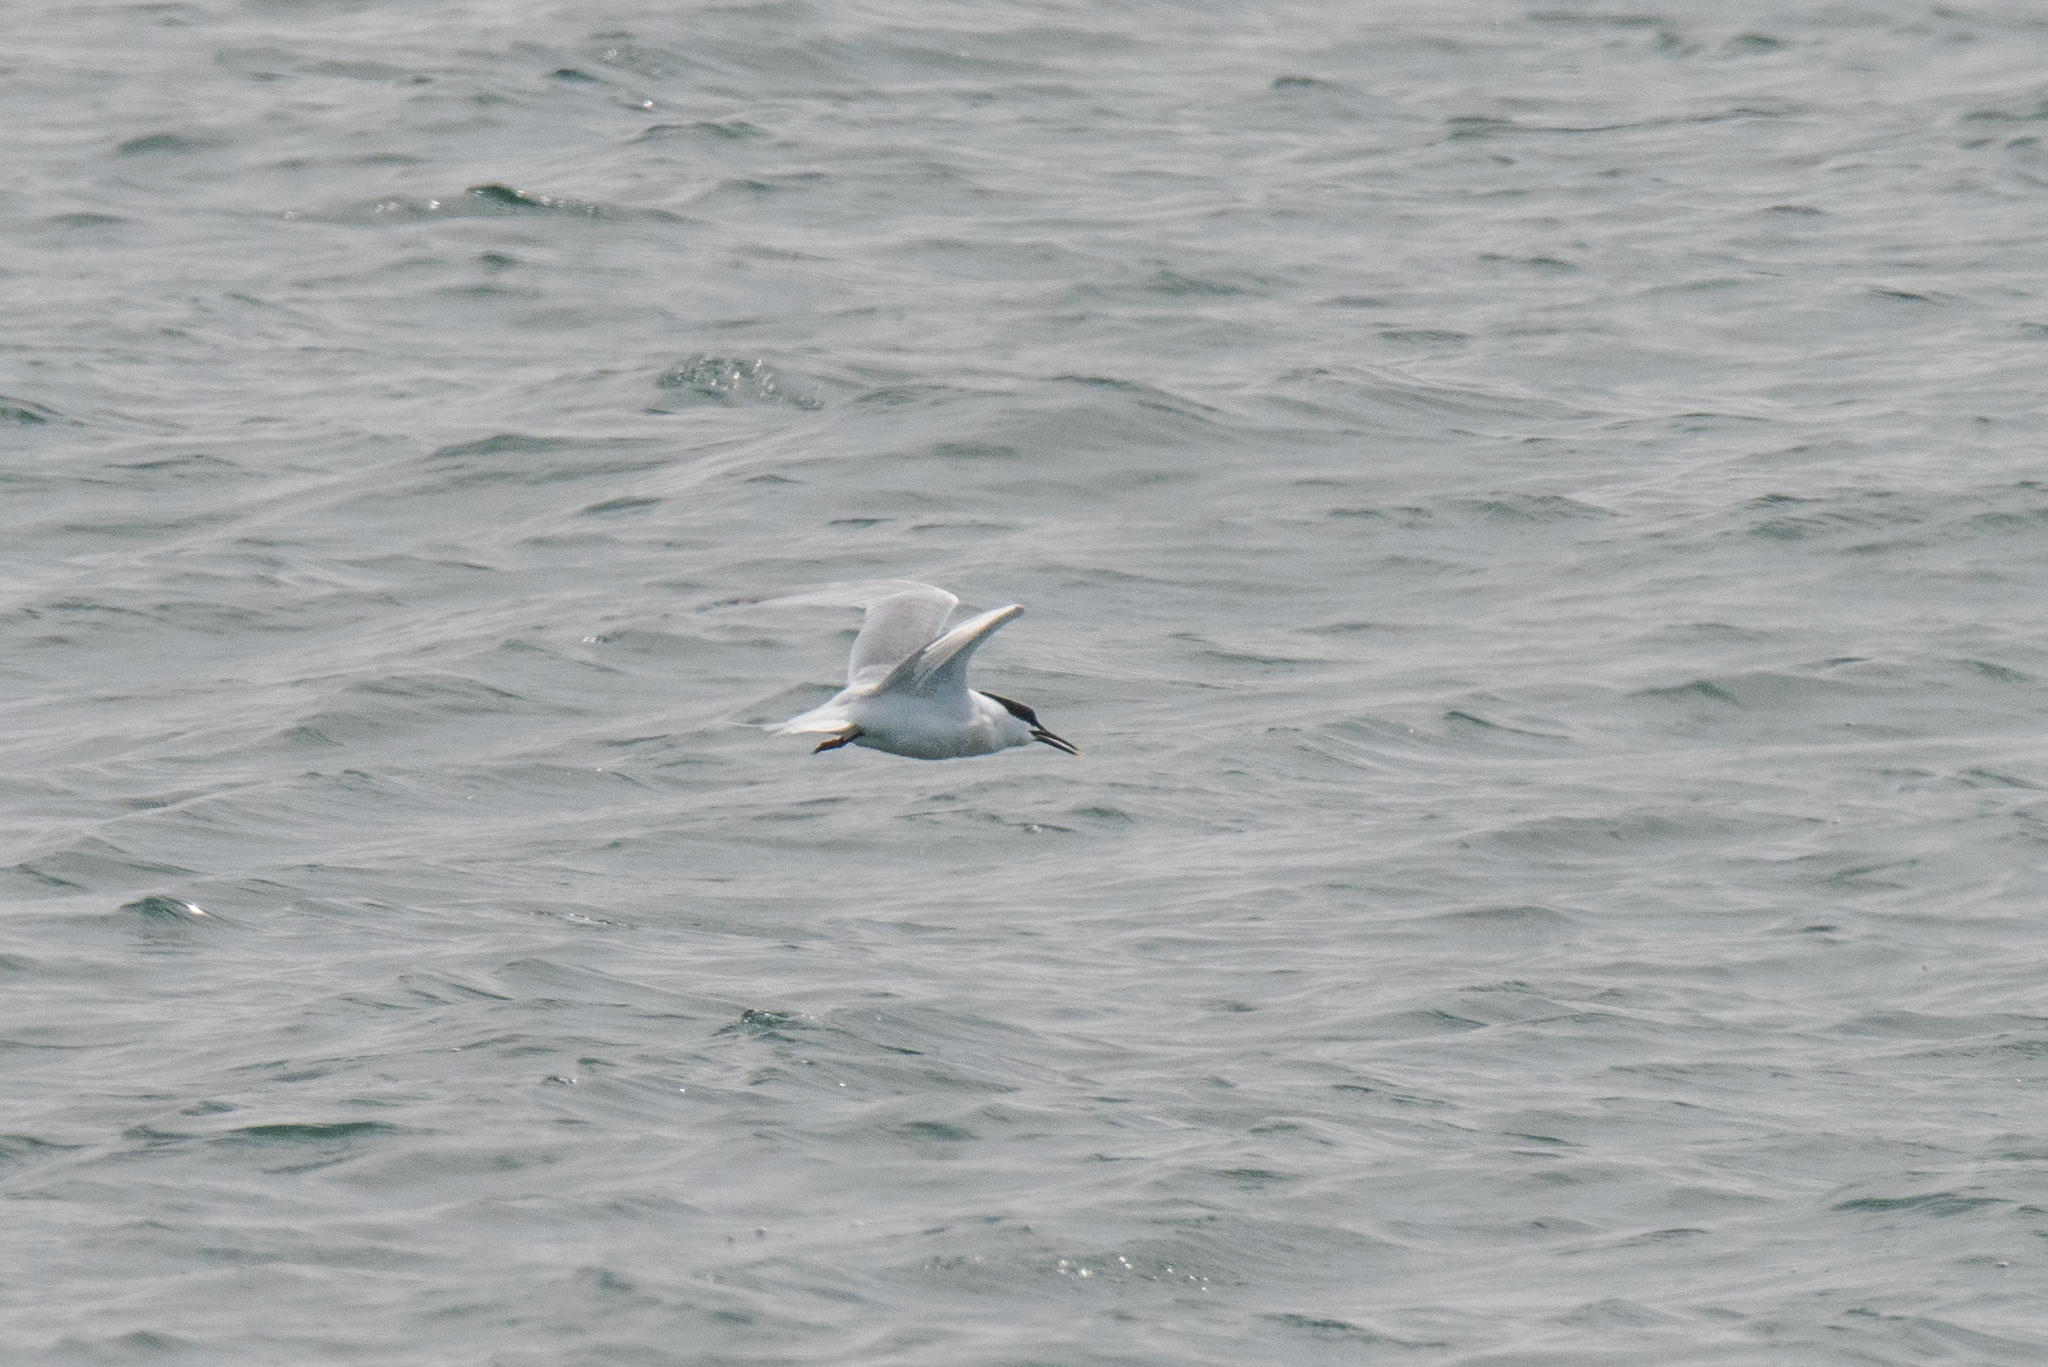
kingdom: Animalia
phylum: Chordata
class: Aves
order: Charadriiformes
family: Laridae
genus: Thalasseus
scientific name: Thalasseus sandvicensis
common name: Sandwich tern
